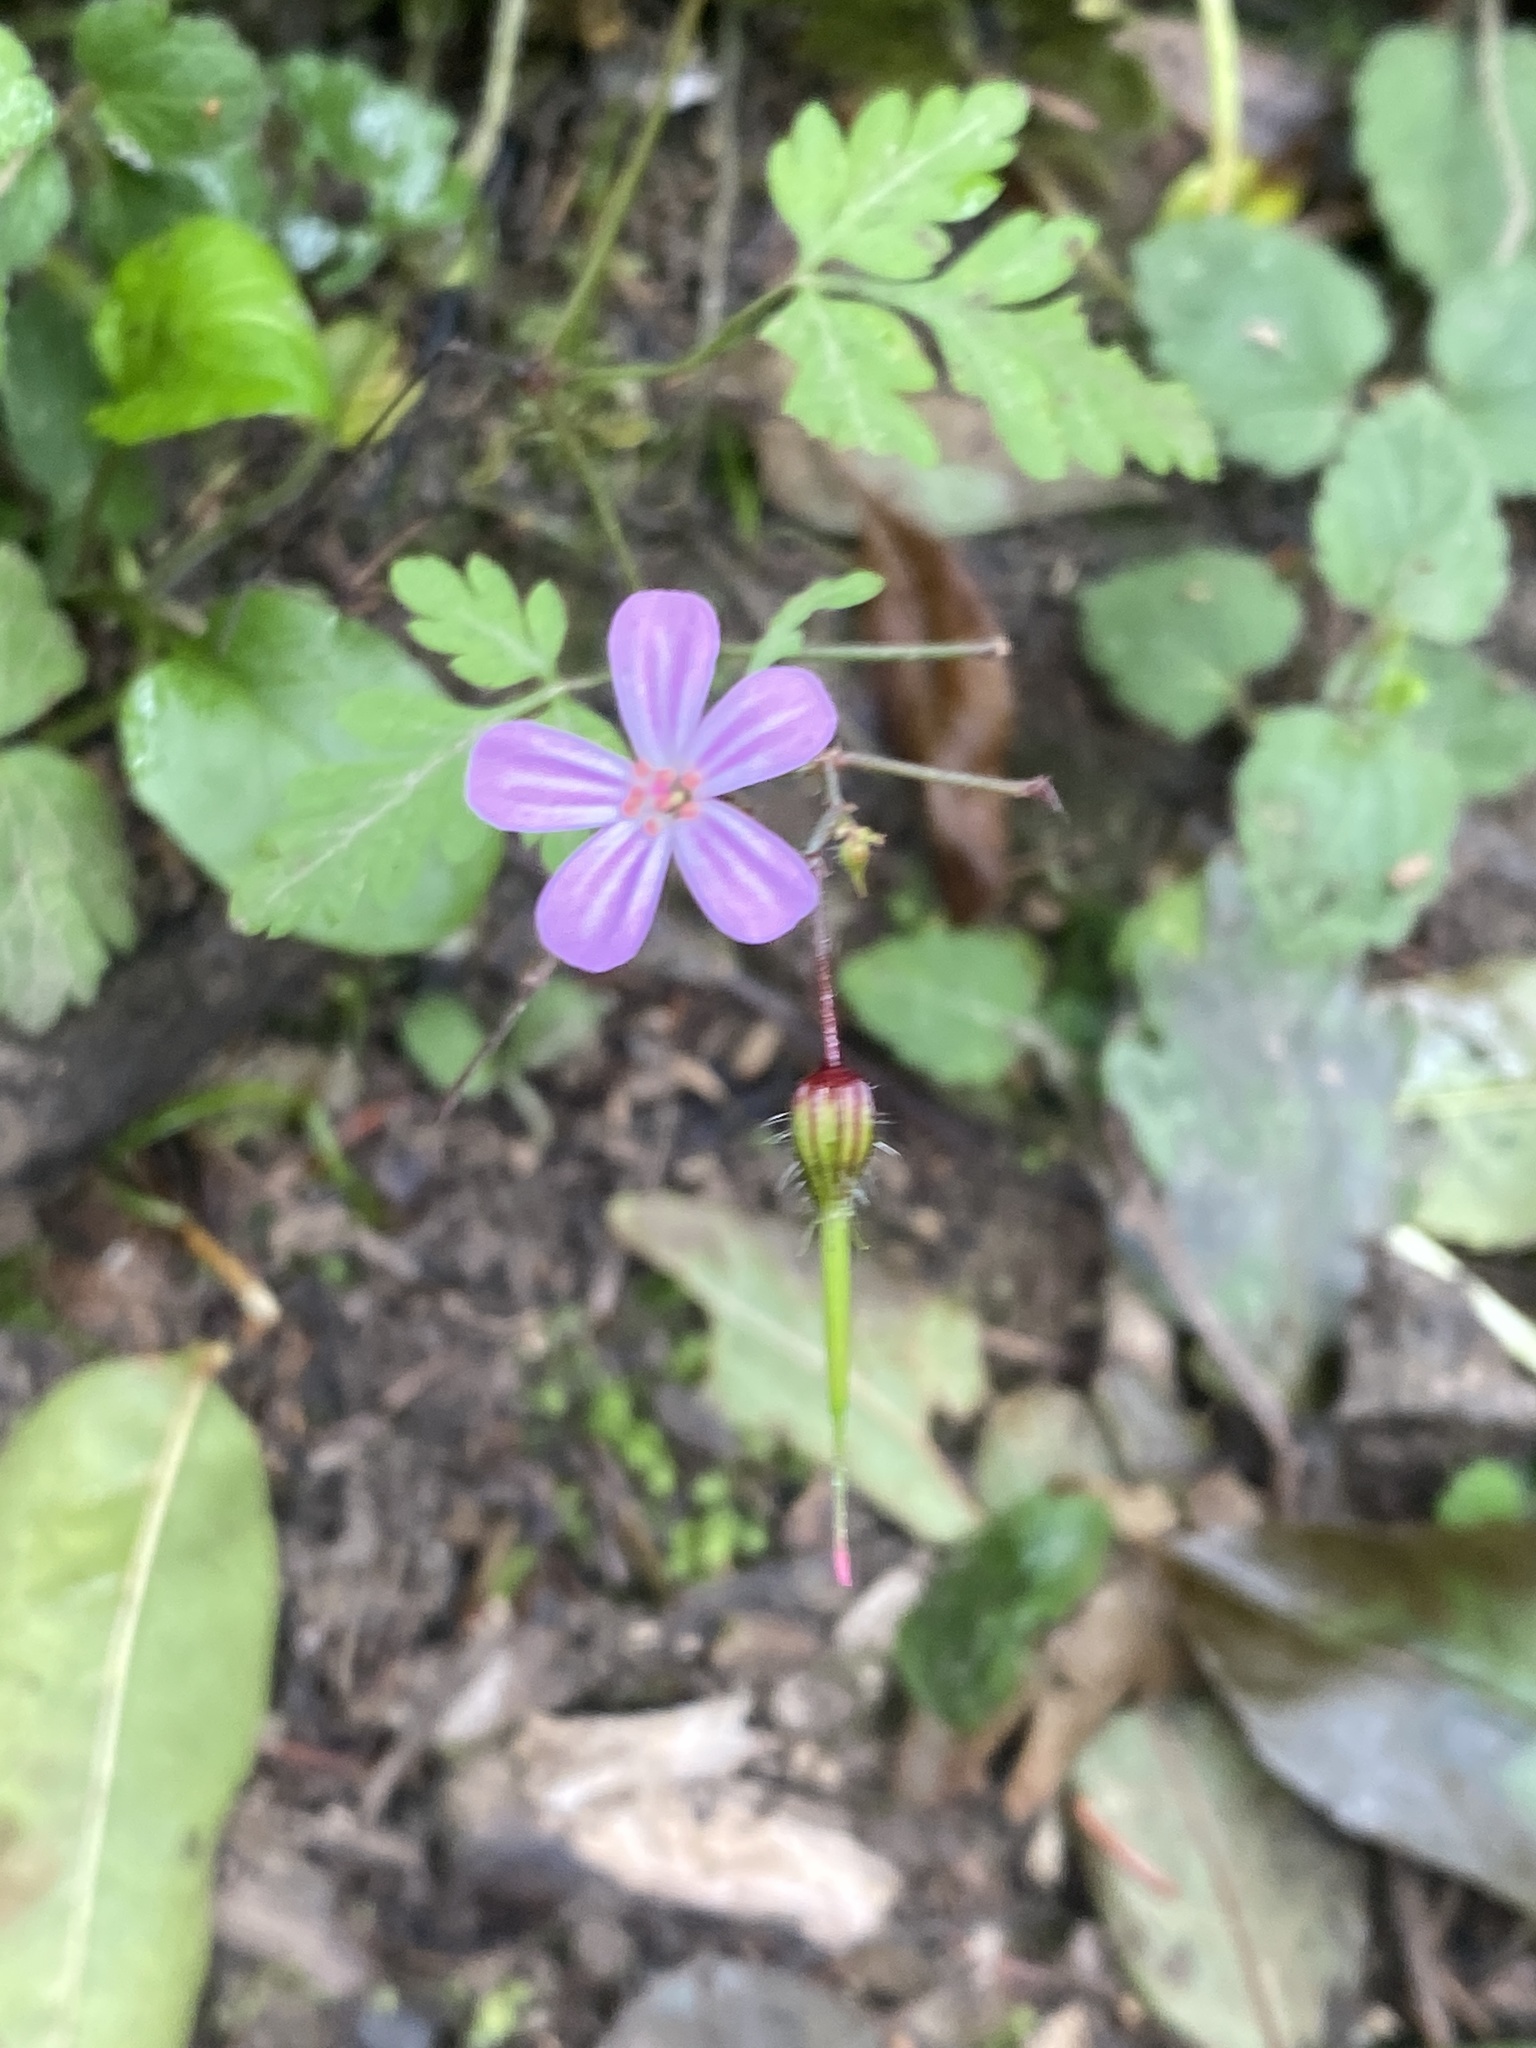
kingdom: Plantae
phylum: Tracheophyta
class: Magnoliopsida
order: Geraniales
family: Geraniaceae
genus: Geranium
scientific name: Geranium robertianum
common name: Herb-robert
